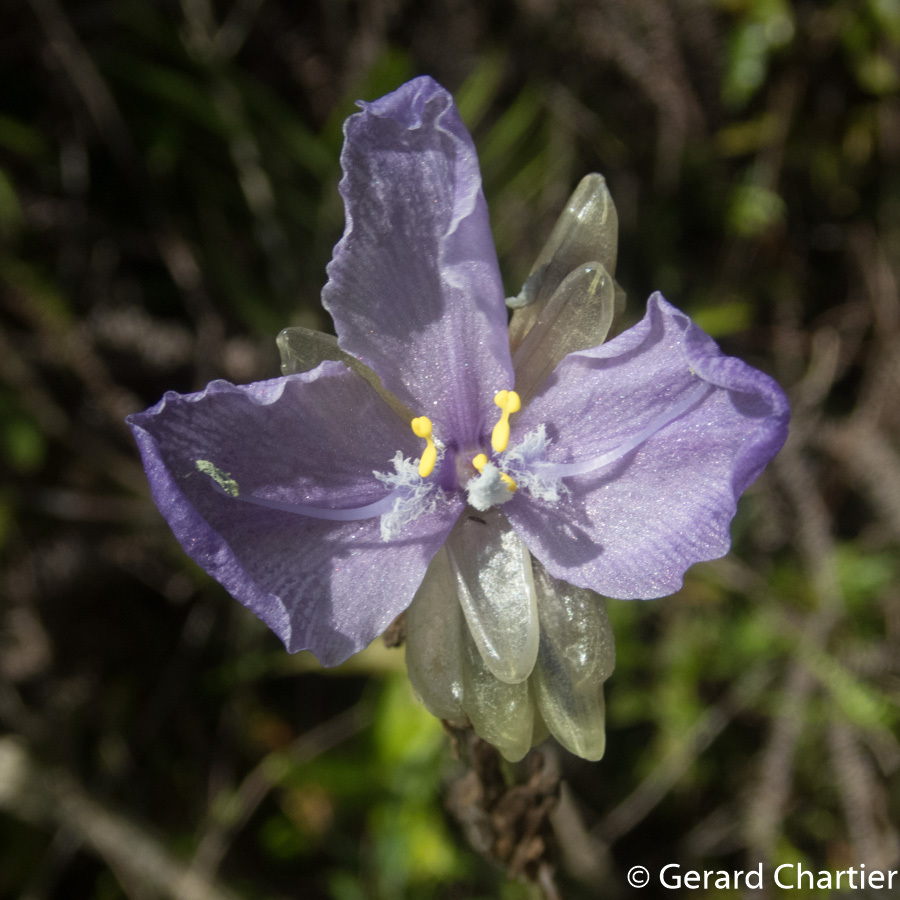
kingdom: Plantae
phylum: Tracheophyta
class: Liliopsida
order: Commelinales
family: Commelinaceae
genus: Murdannia
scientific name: Murdannia macrocarpa
